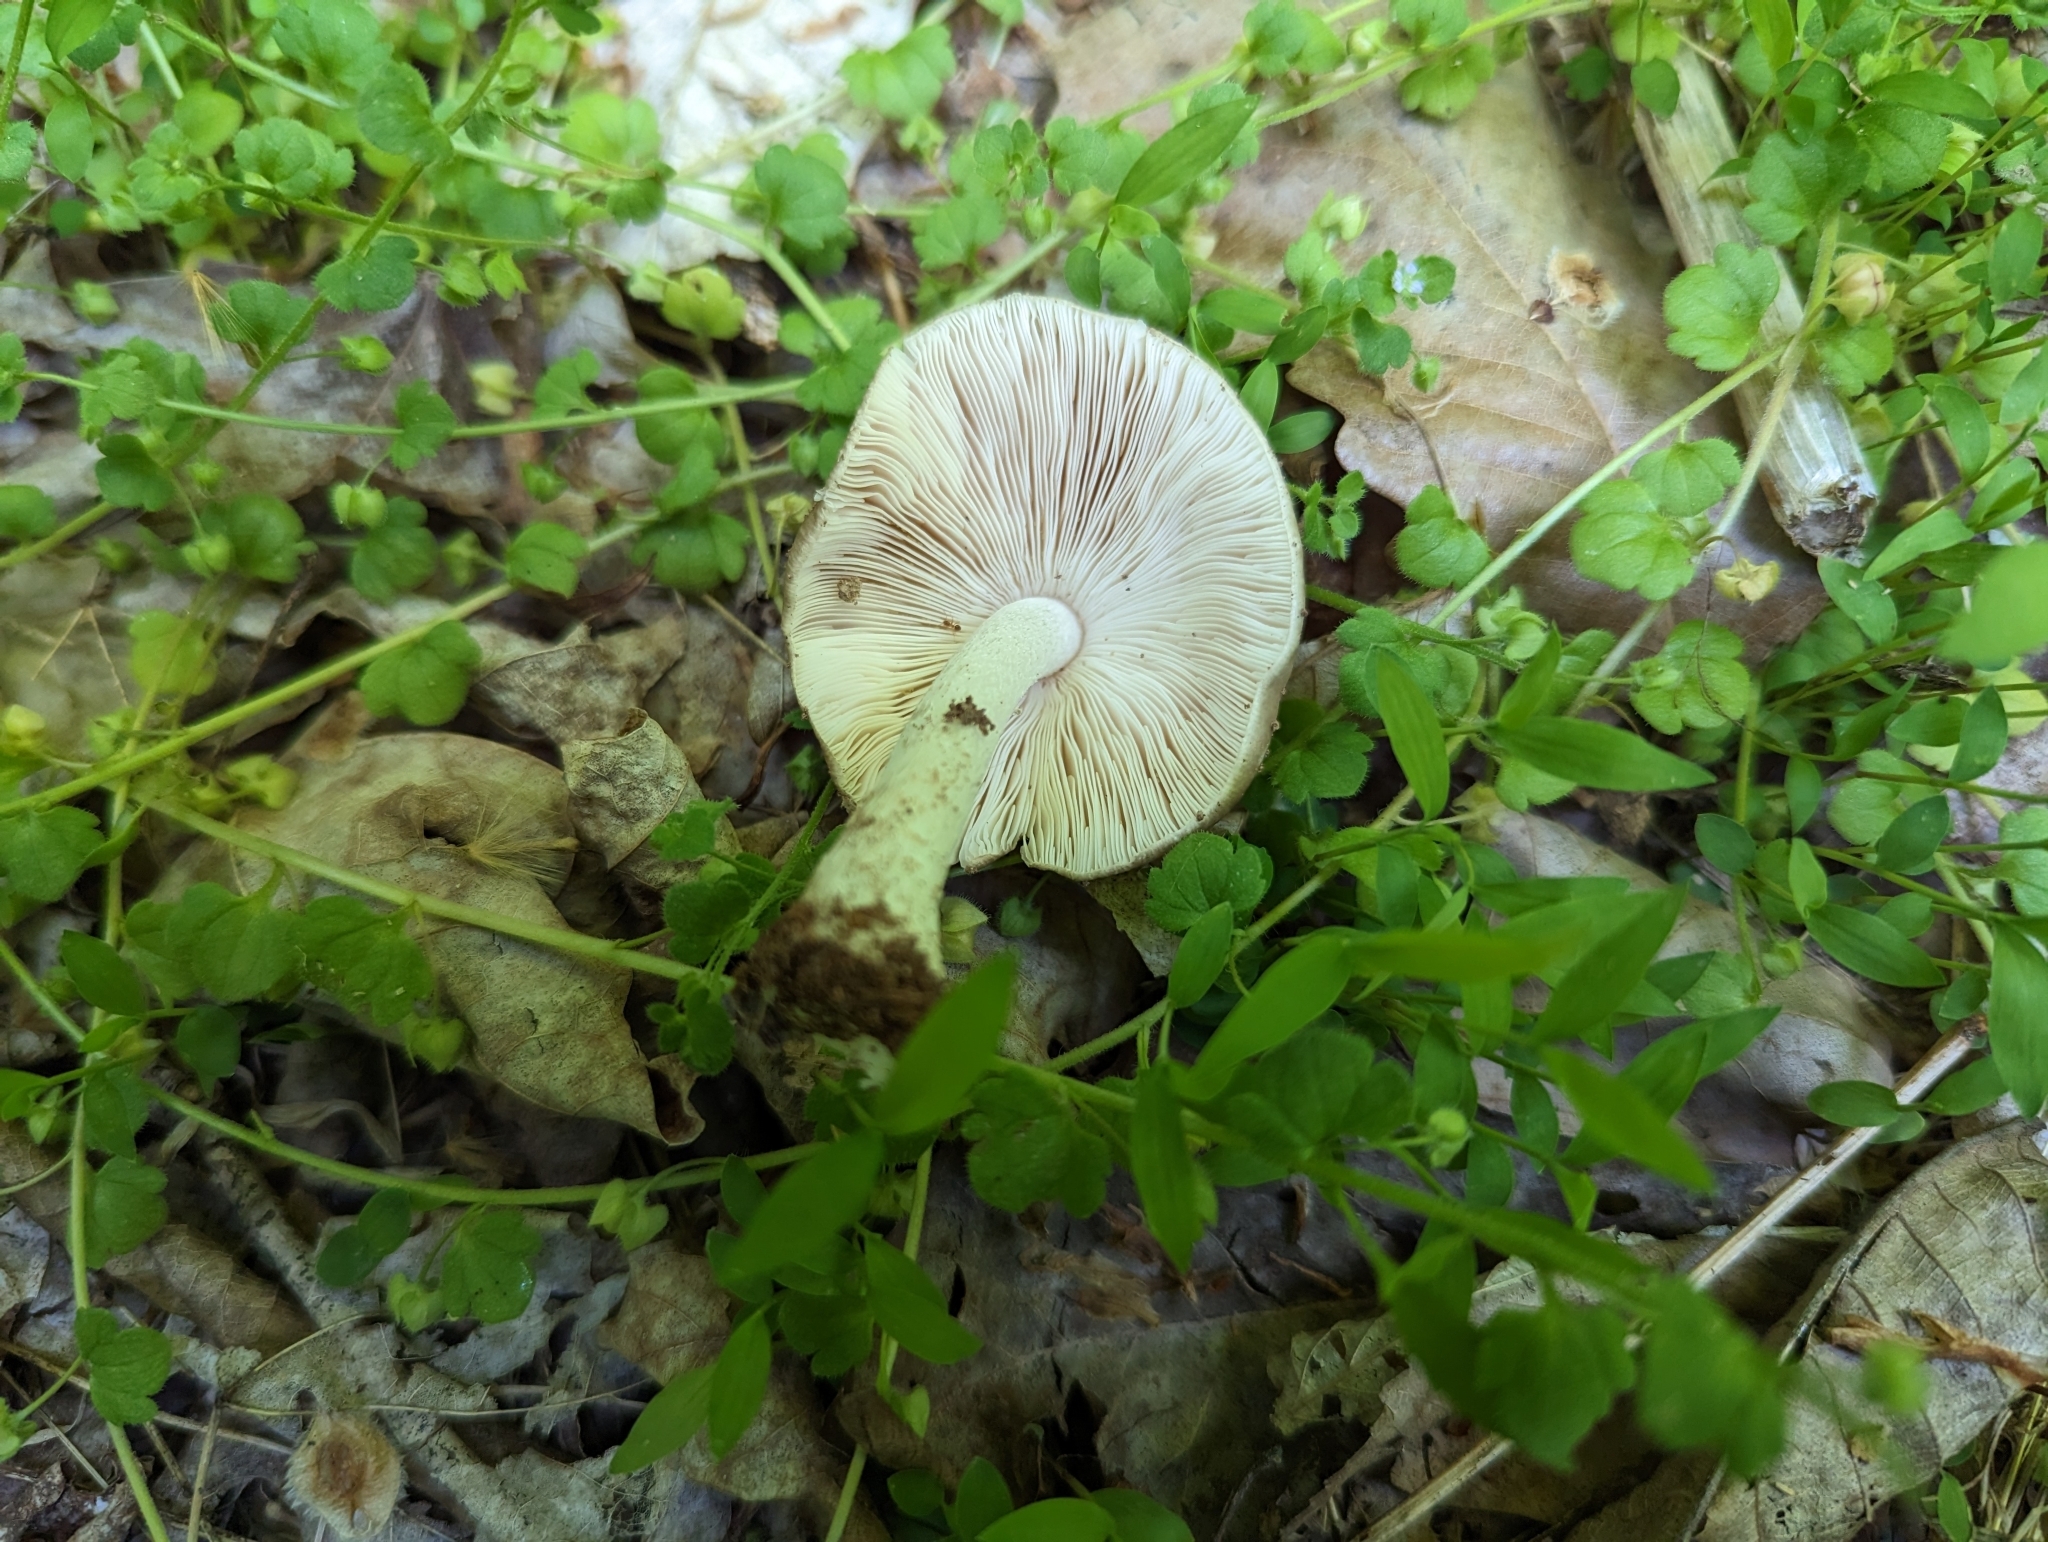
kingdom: Fungi
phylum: Basidiomycota
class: Agaricomycetes
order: Agaricales
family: Pluteaceae
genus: Pluteus
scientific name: Pluteus cervinus
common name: Deer shield
